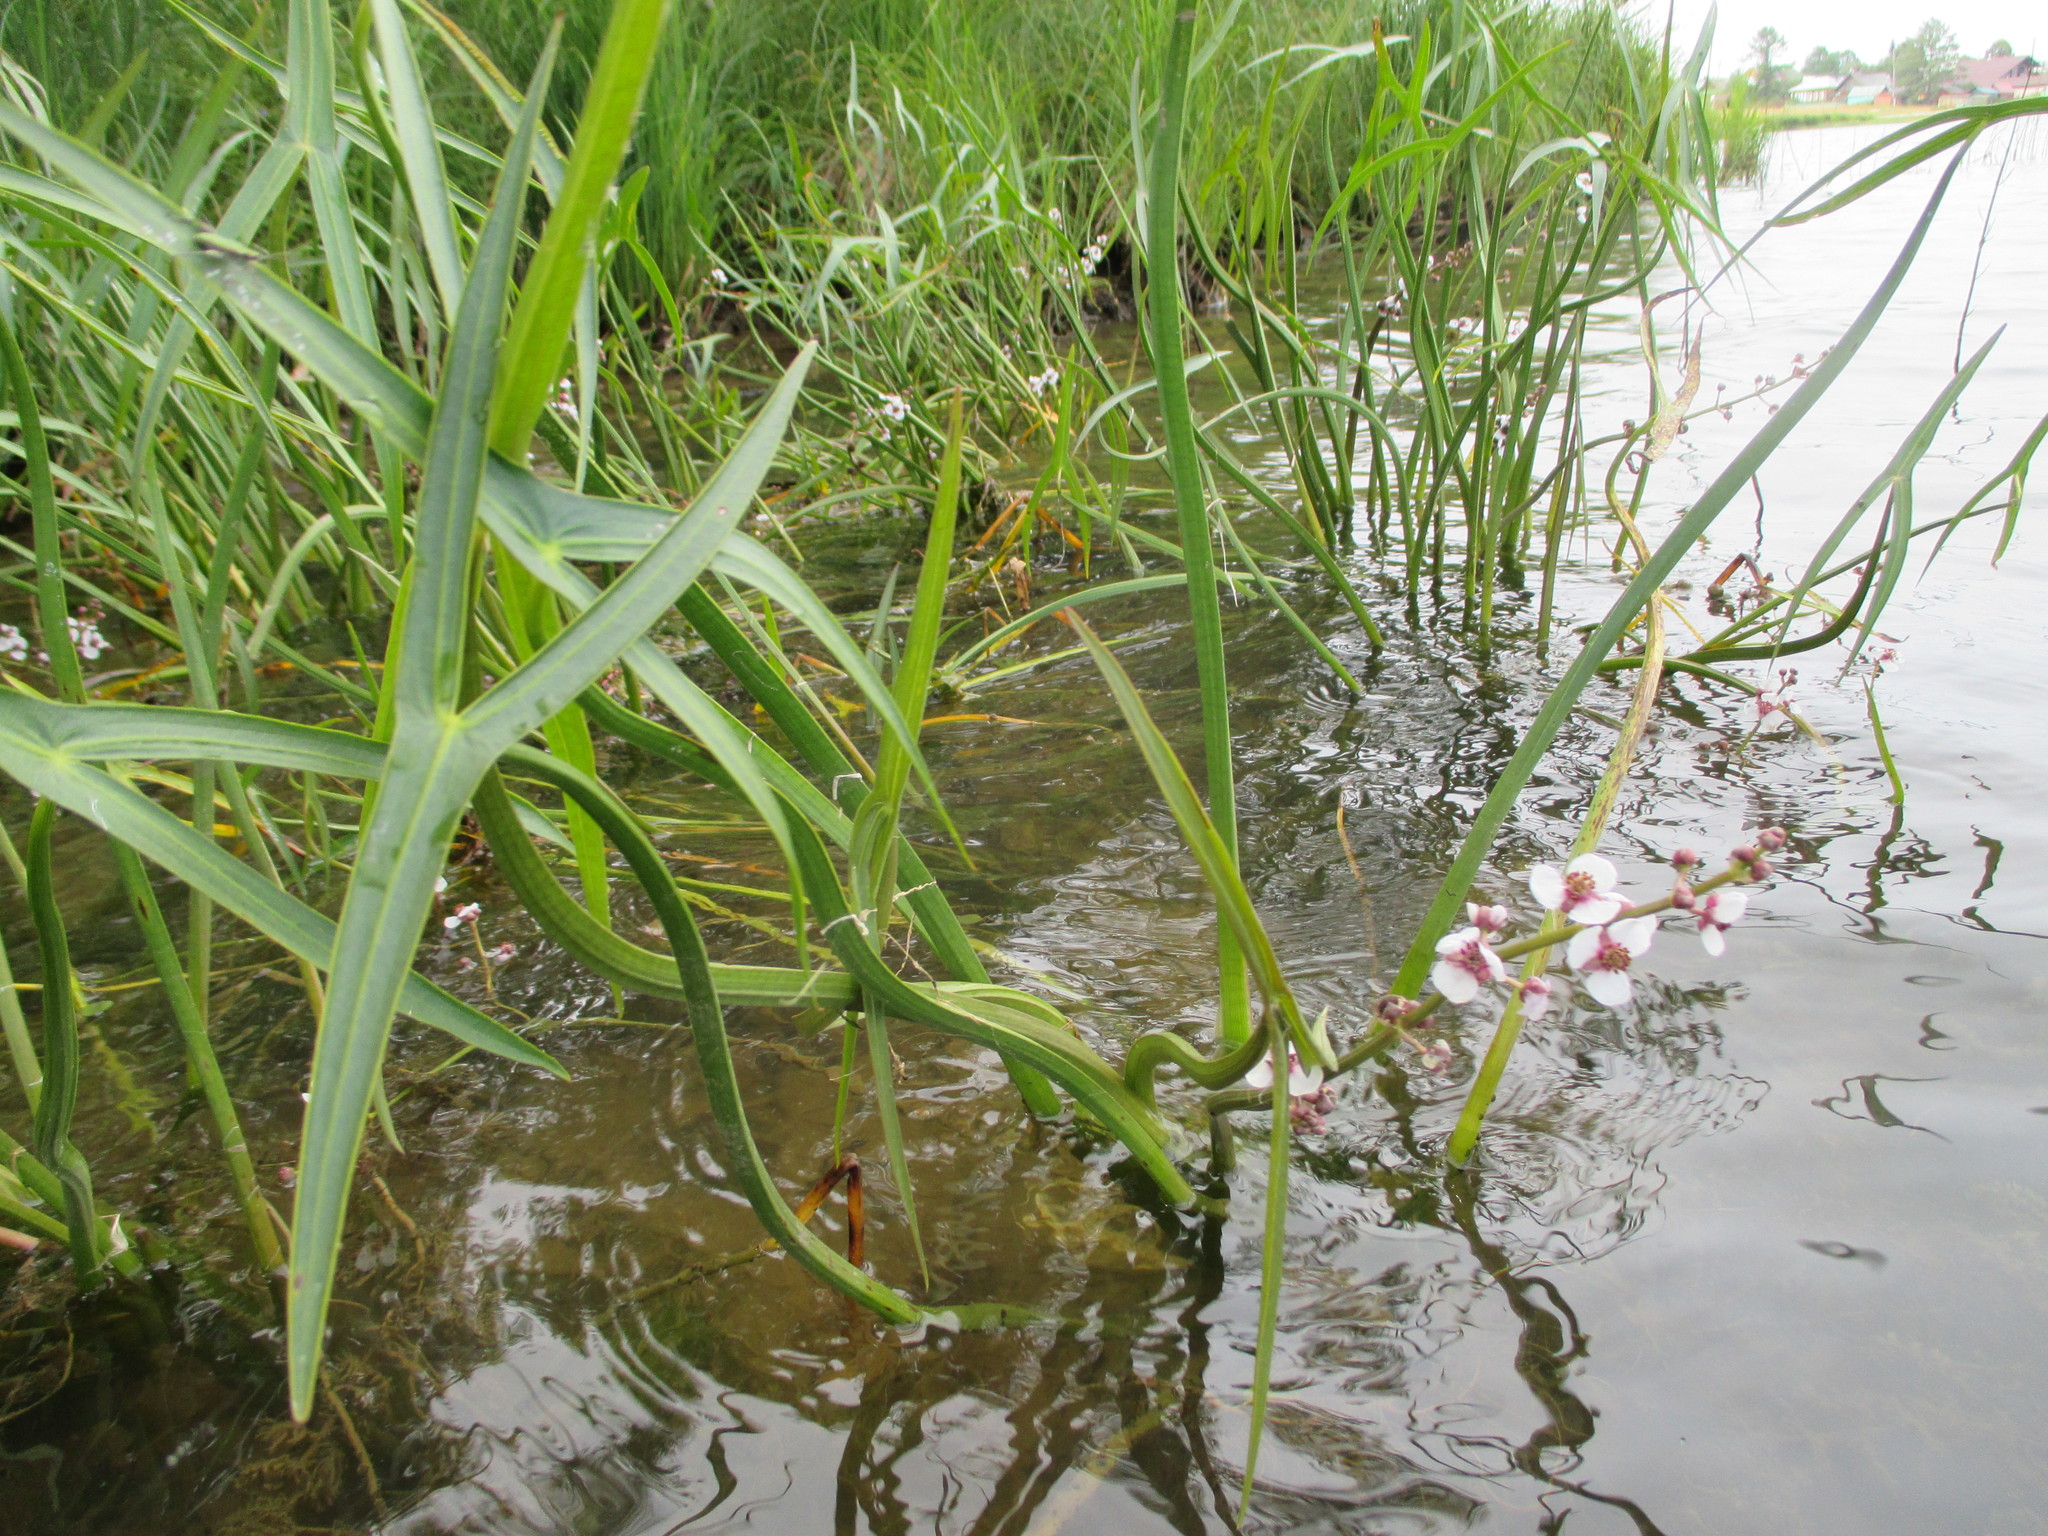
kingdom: Plantae
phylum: Tracheophyta
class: Liliopsida
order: Alismatales
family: Alismataceae
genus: Sagittaria
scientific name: Sagittaria sagittifolia
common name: Arrowhead
